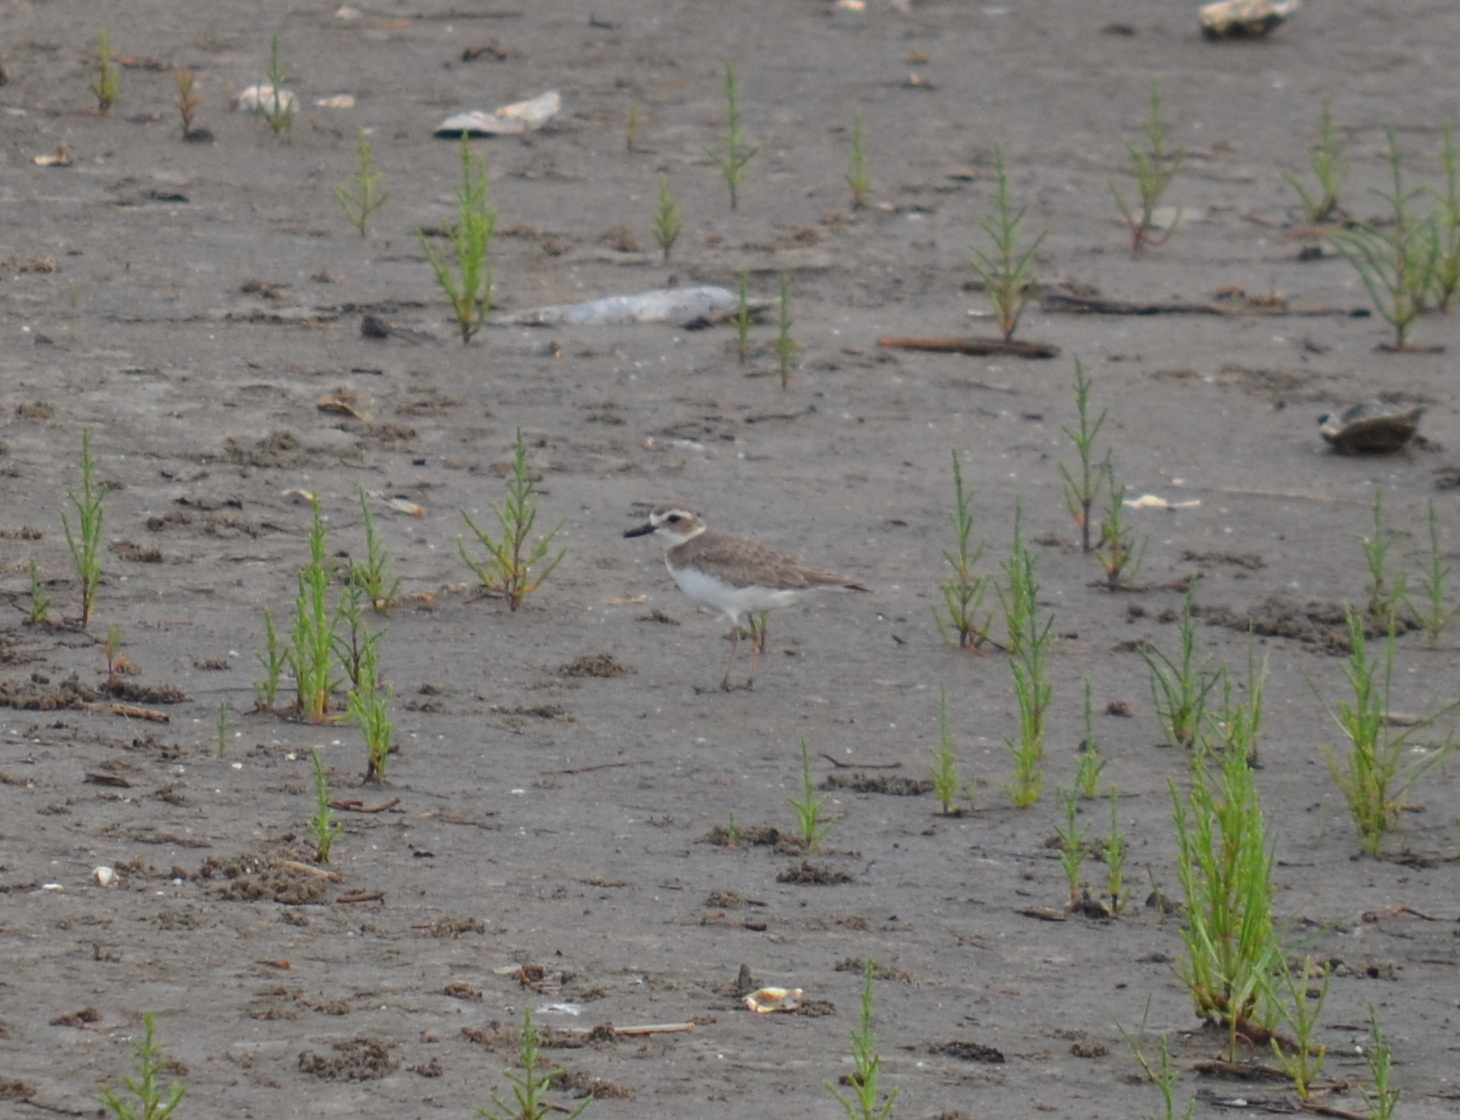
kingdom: Animalia
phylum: Chordata
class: Aves
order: Charadriiformes
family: Charadriidae
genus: Anarhynchus
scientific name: Anarhynchus
